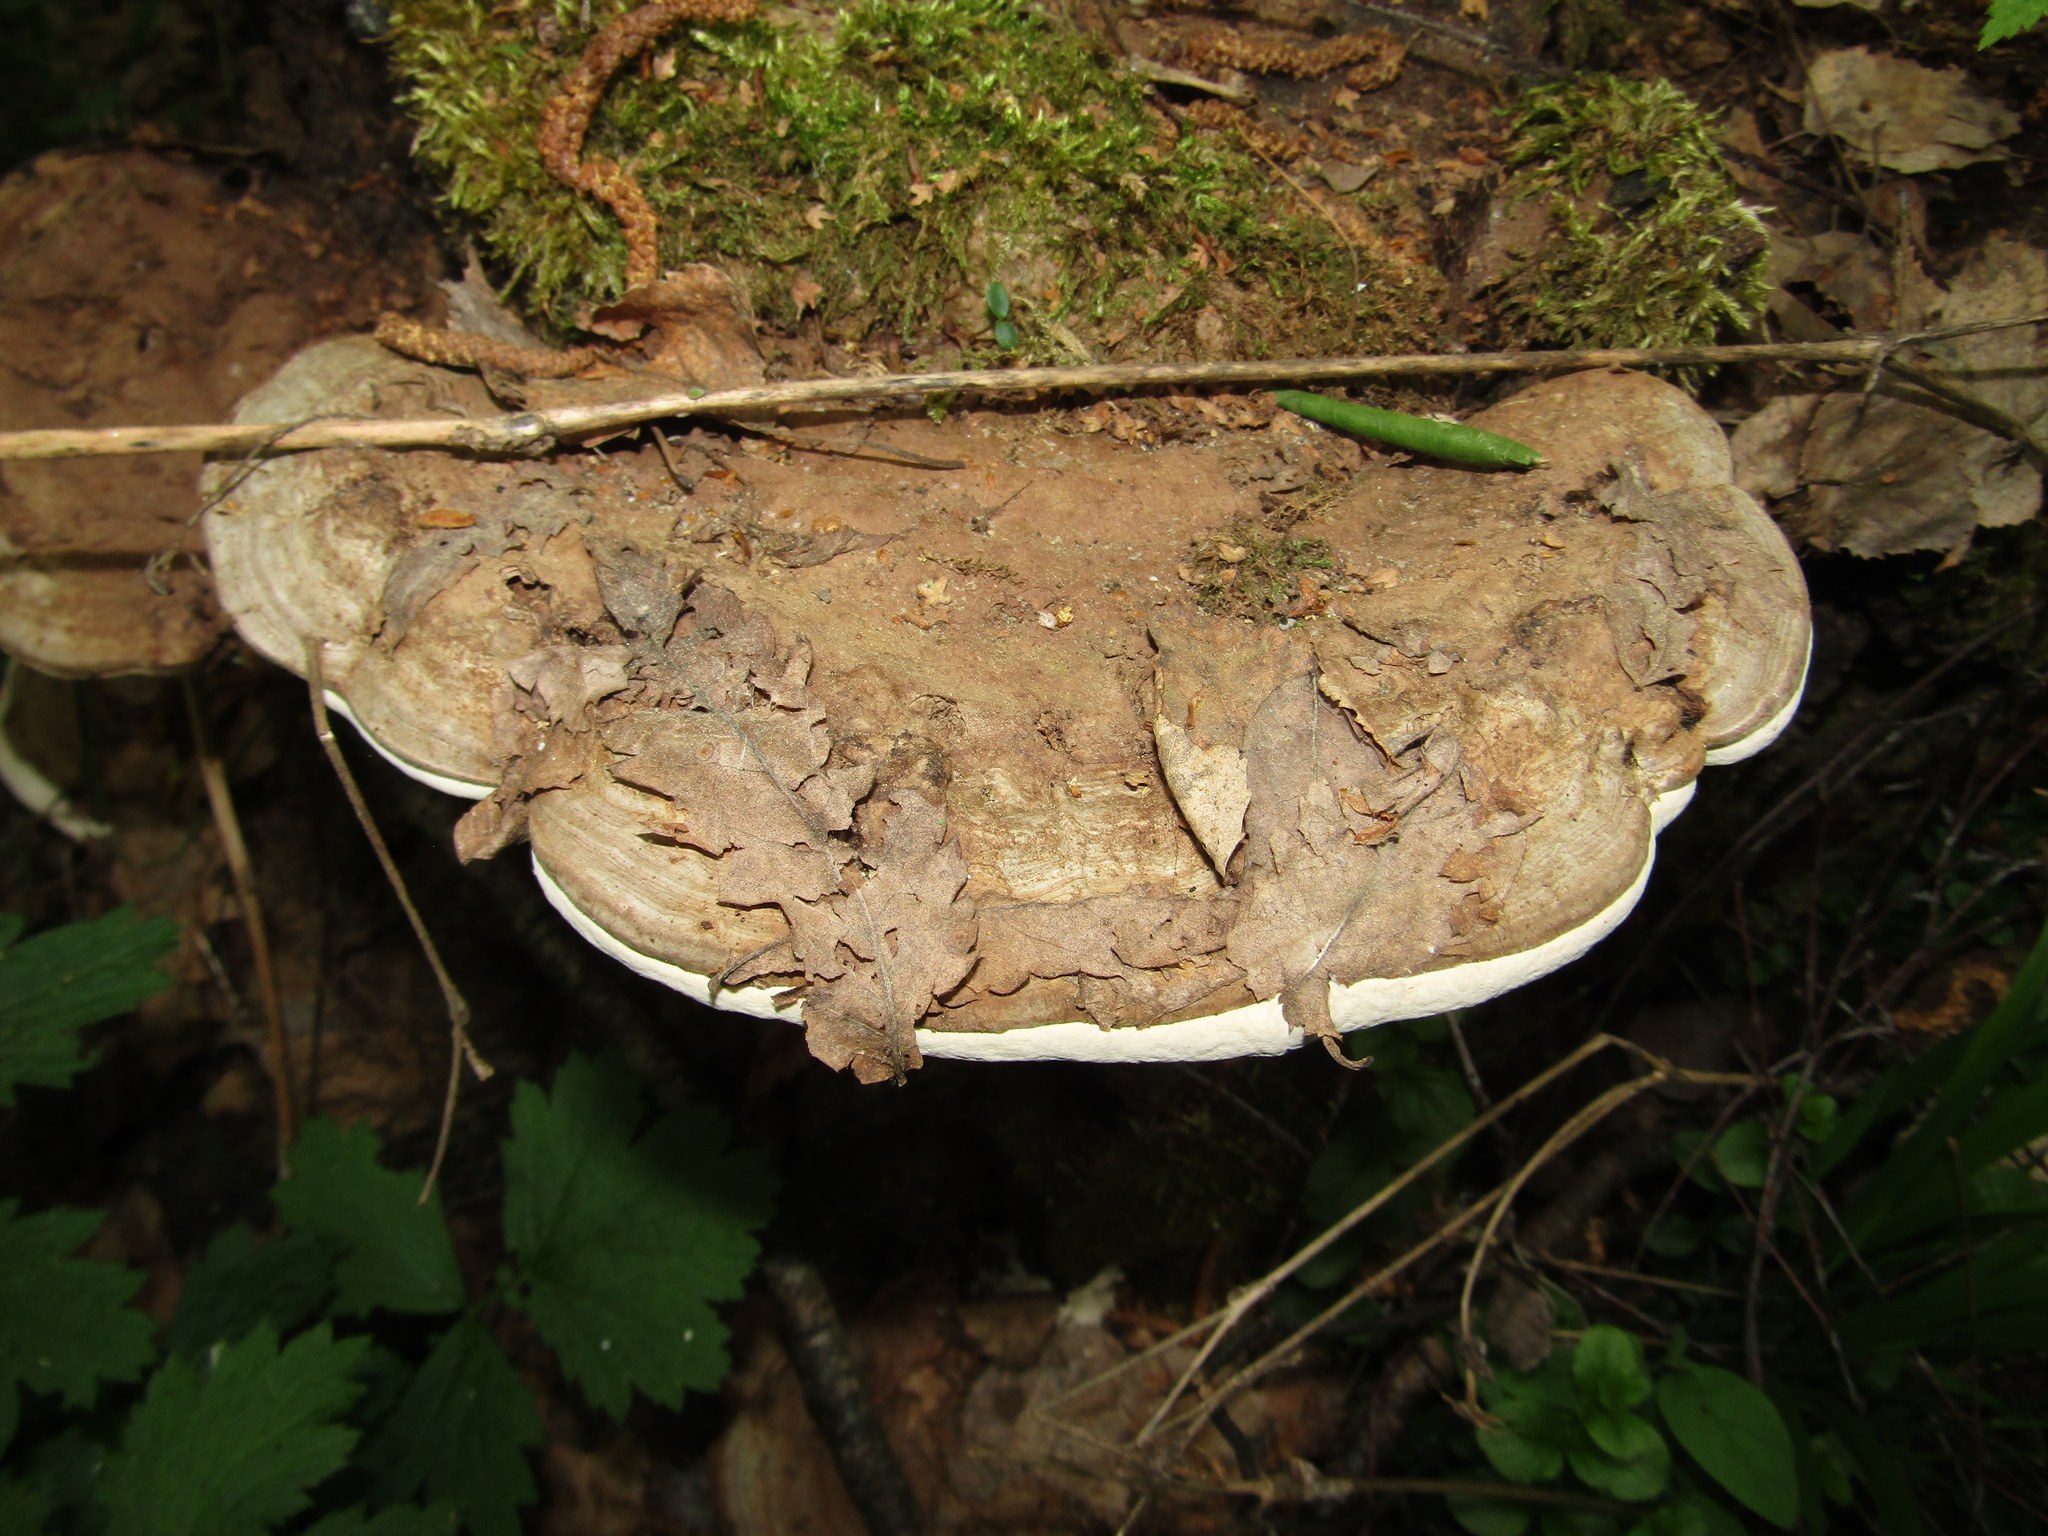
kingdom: Fungi
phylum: Basidiomycota
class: Agaricomycetes
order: Polyporales
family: Polyporaceae
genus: Ganoderma
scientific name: Ganoderma applanatum
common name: Artist's bracket
